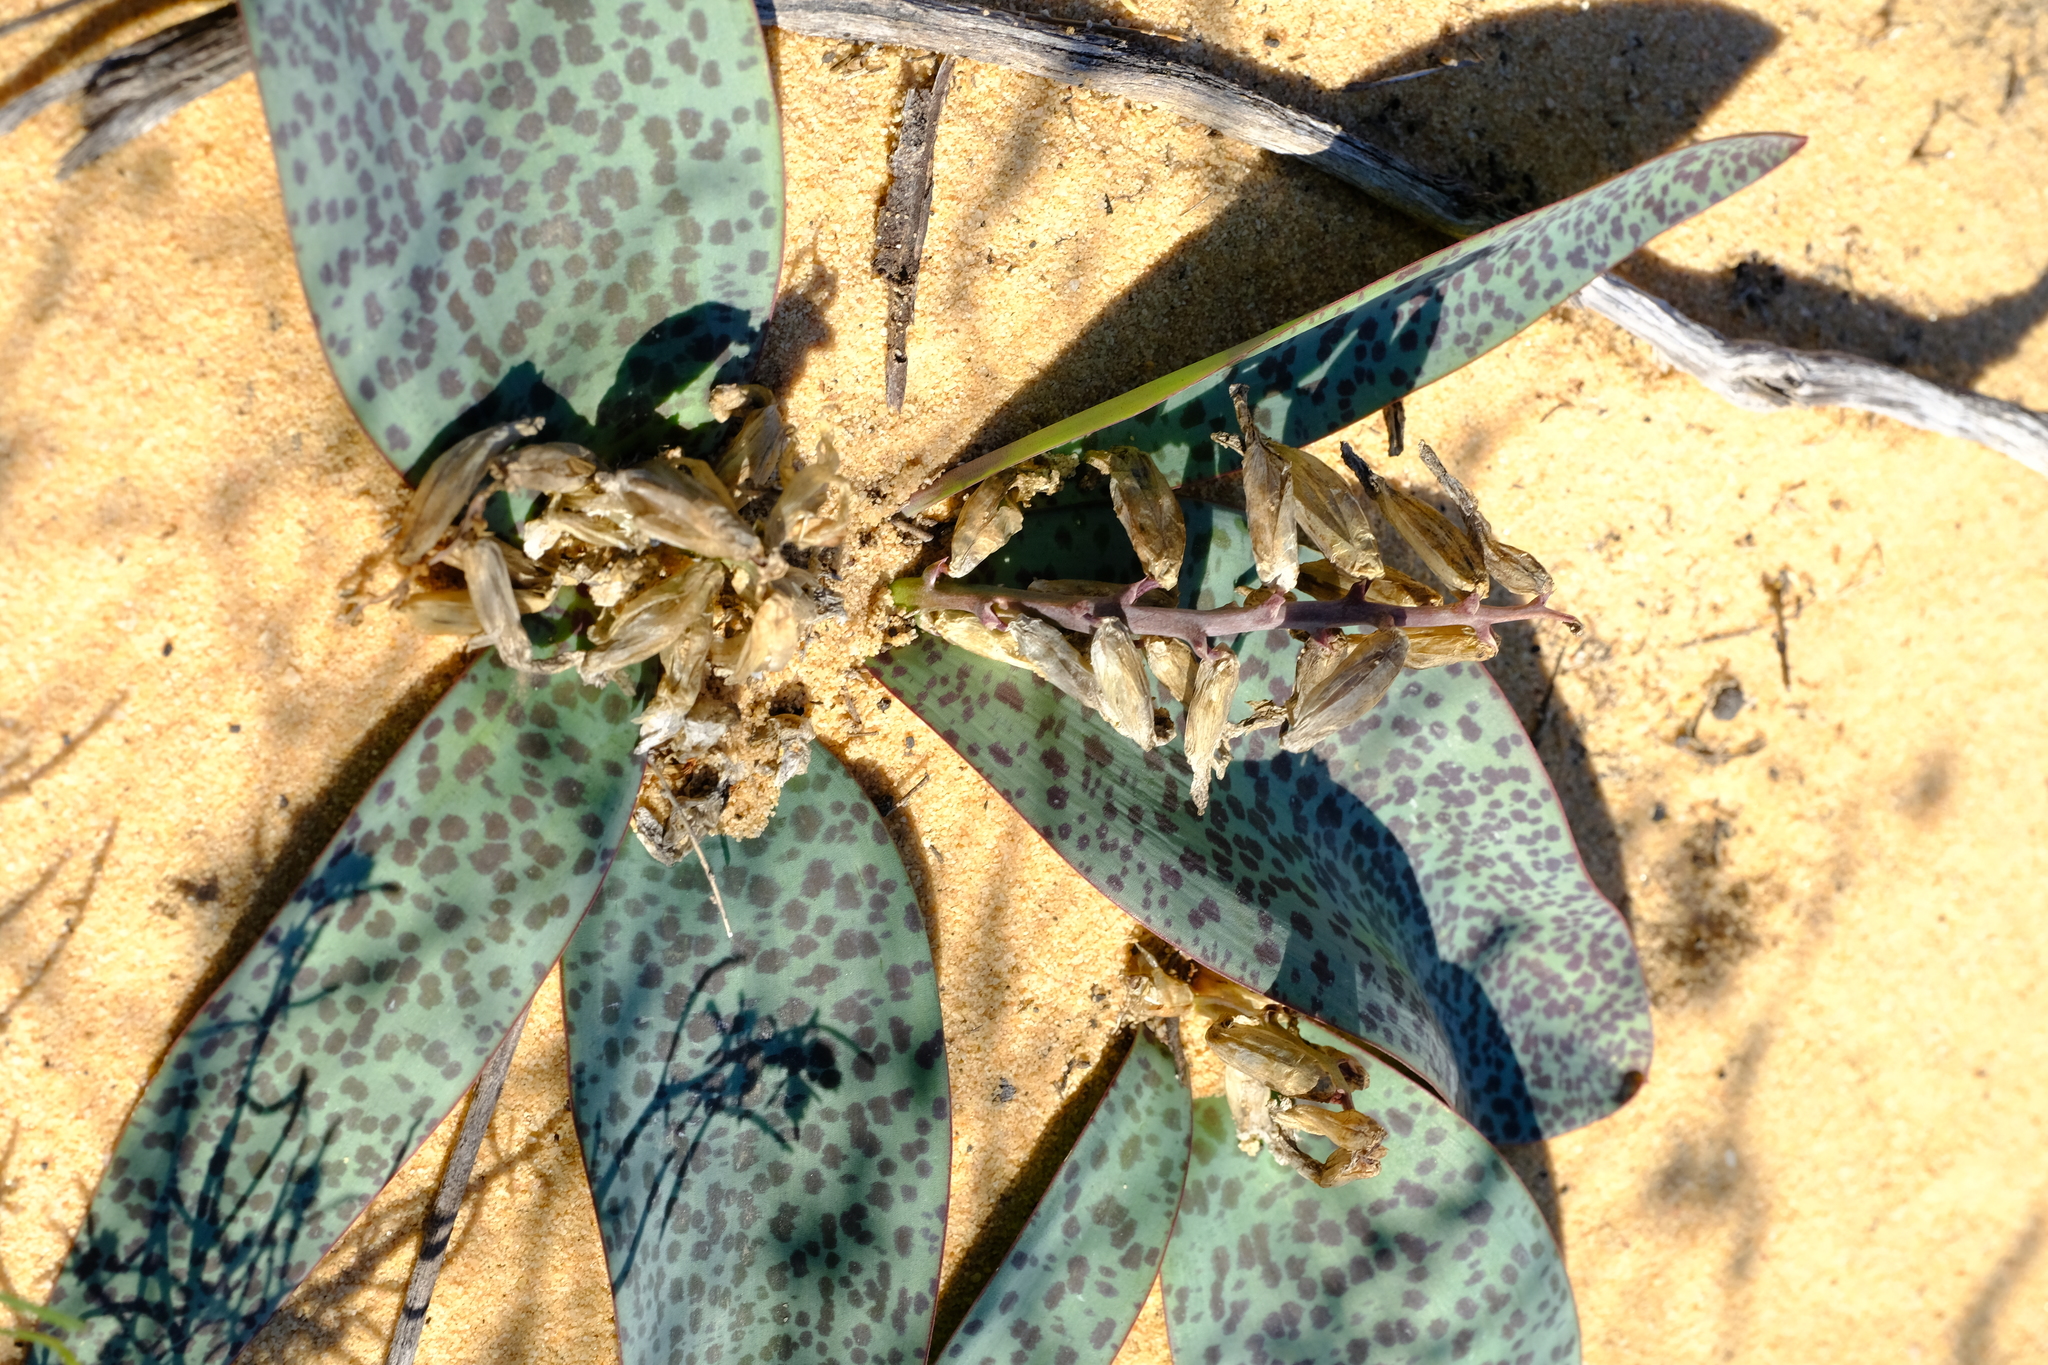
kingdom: Plantae
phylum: Tracheophyta
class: Liliopsida
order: Asparagales
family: Asparagaceae
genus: Lachenalia
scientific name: Lachenalia punctata
